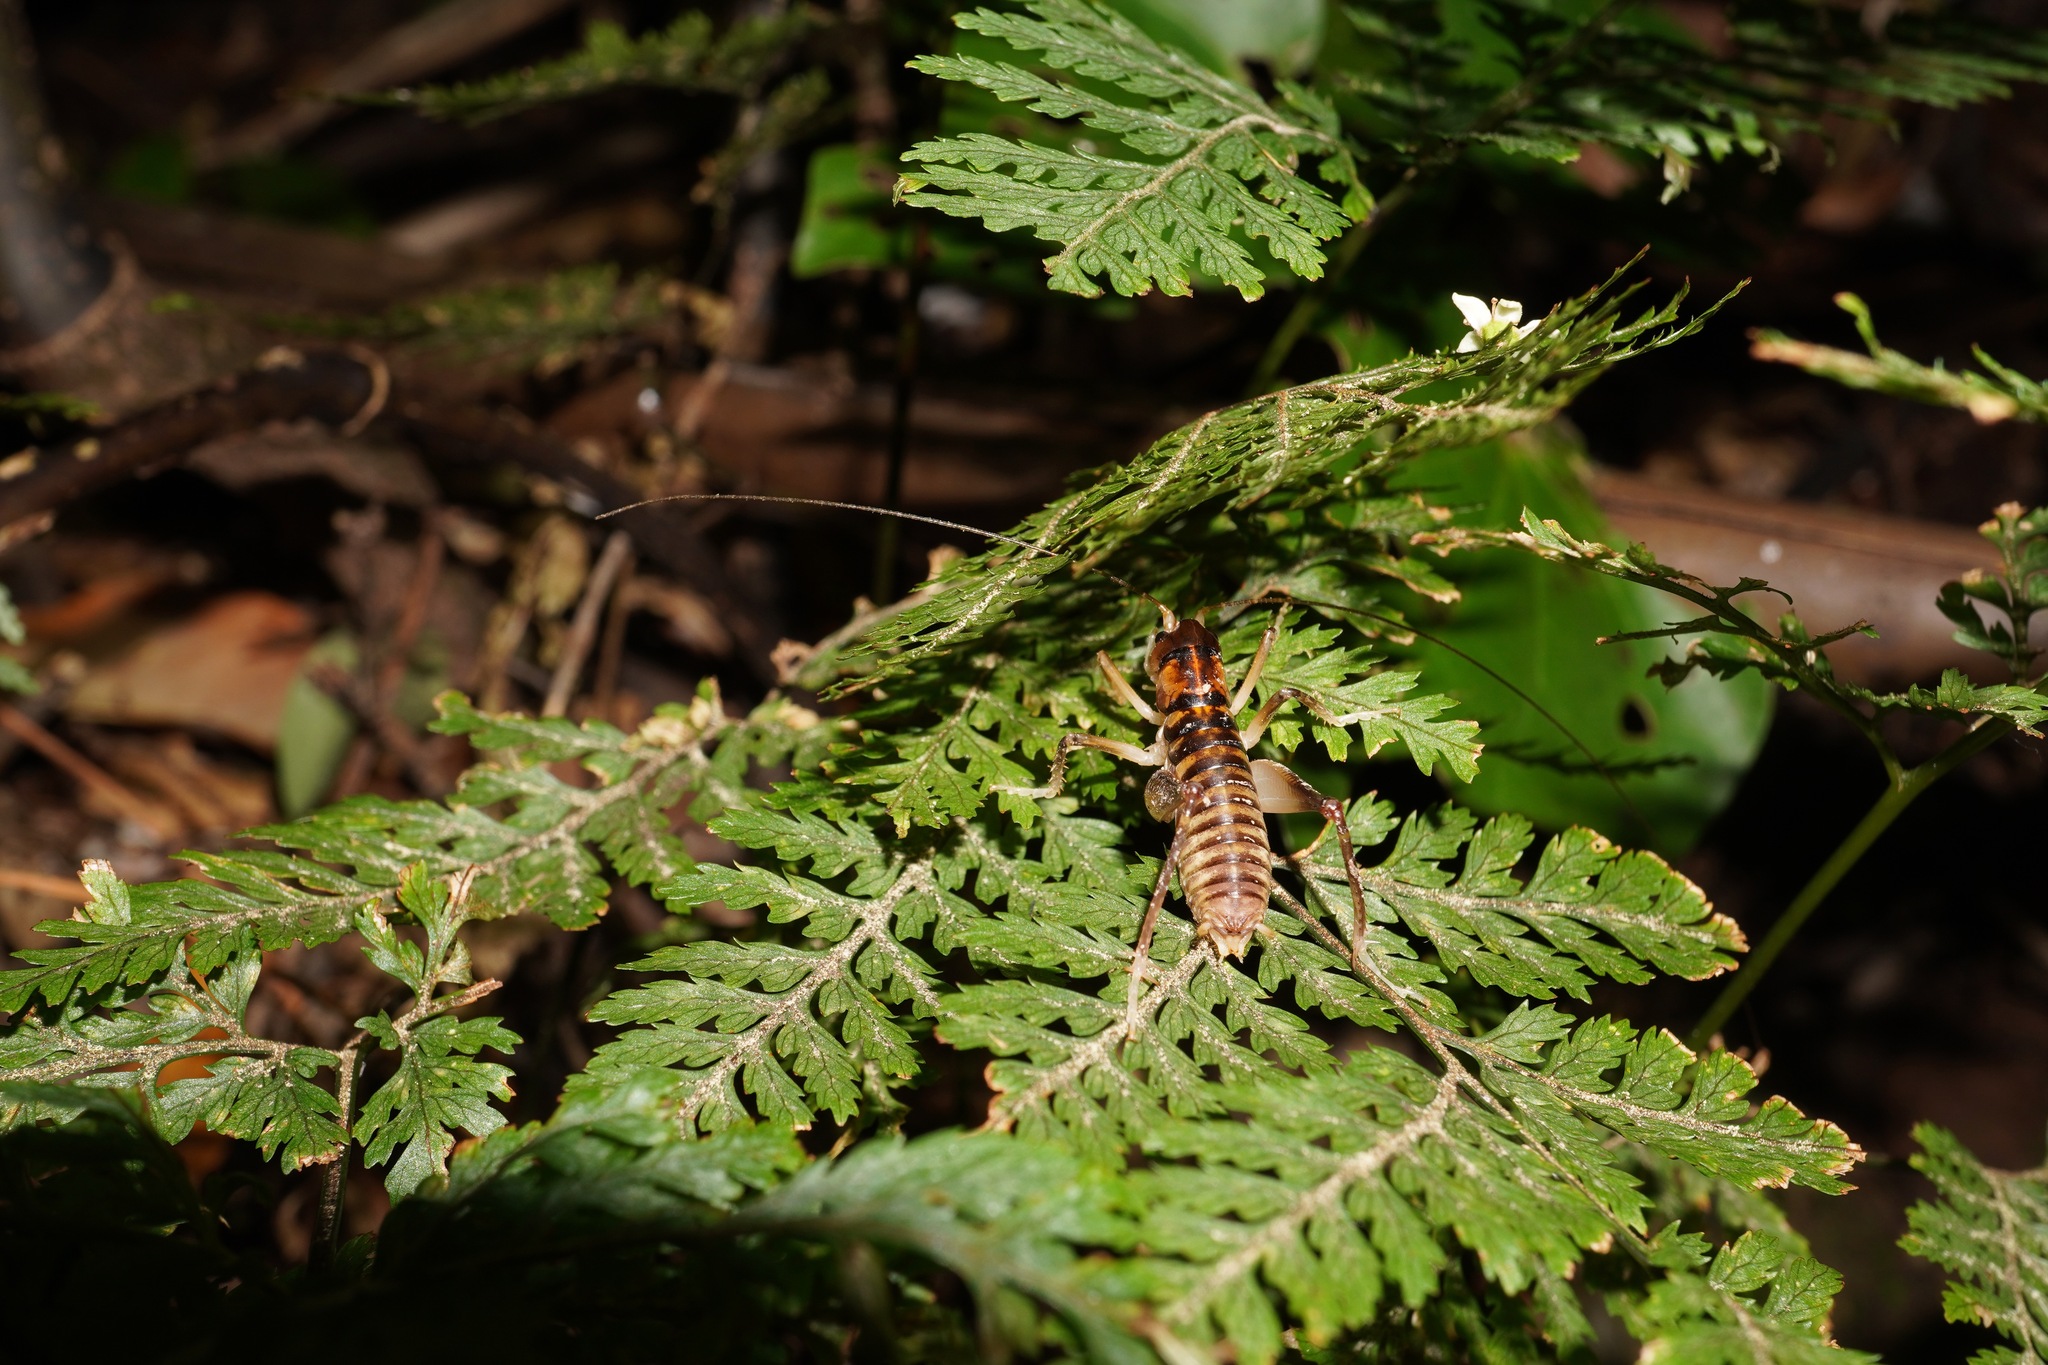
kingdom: Animalia
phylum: Arthropoda
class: Insecta
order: Orthoptera
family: Anostostomatidae
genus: Hemiandrus
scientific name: Hemiandrus pallitarsis
